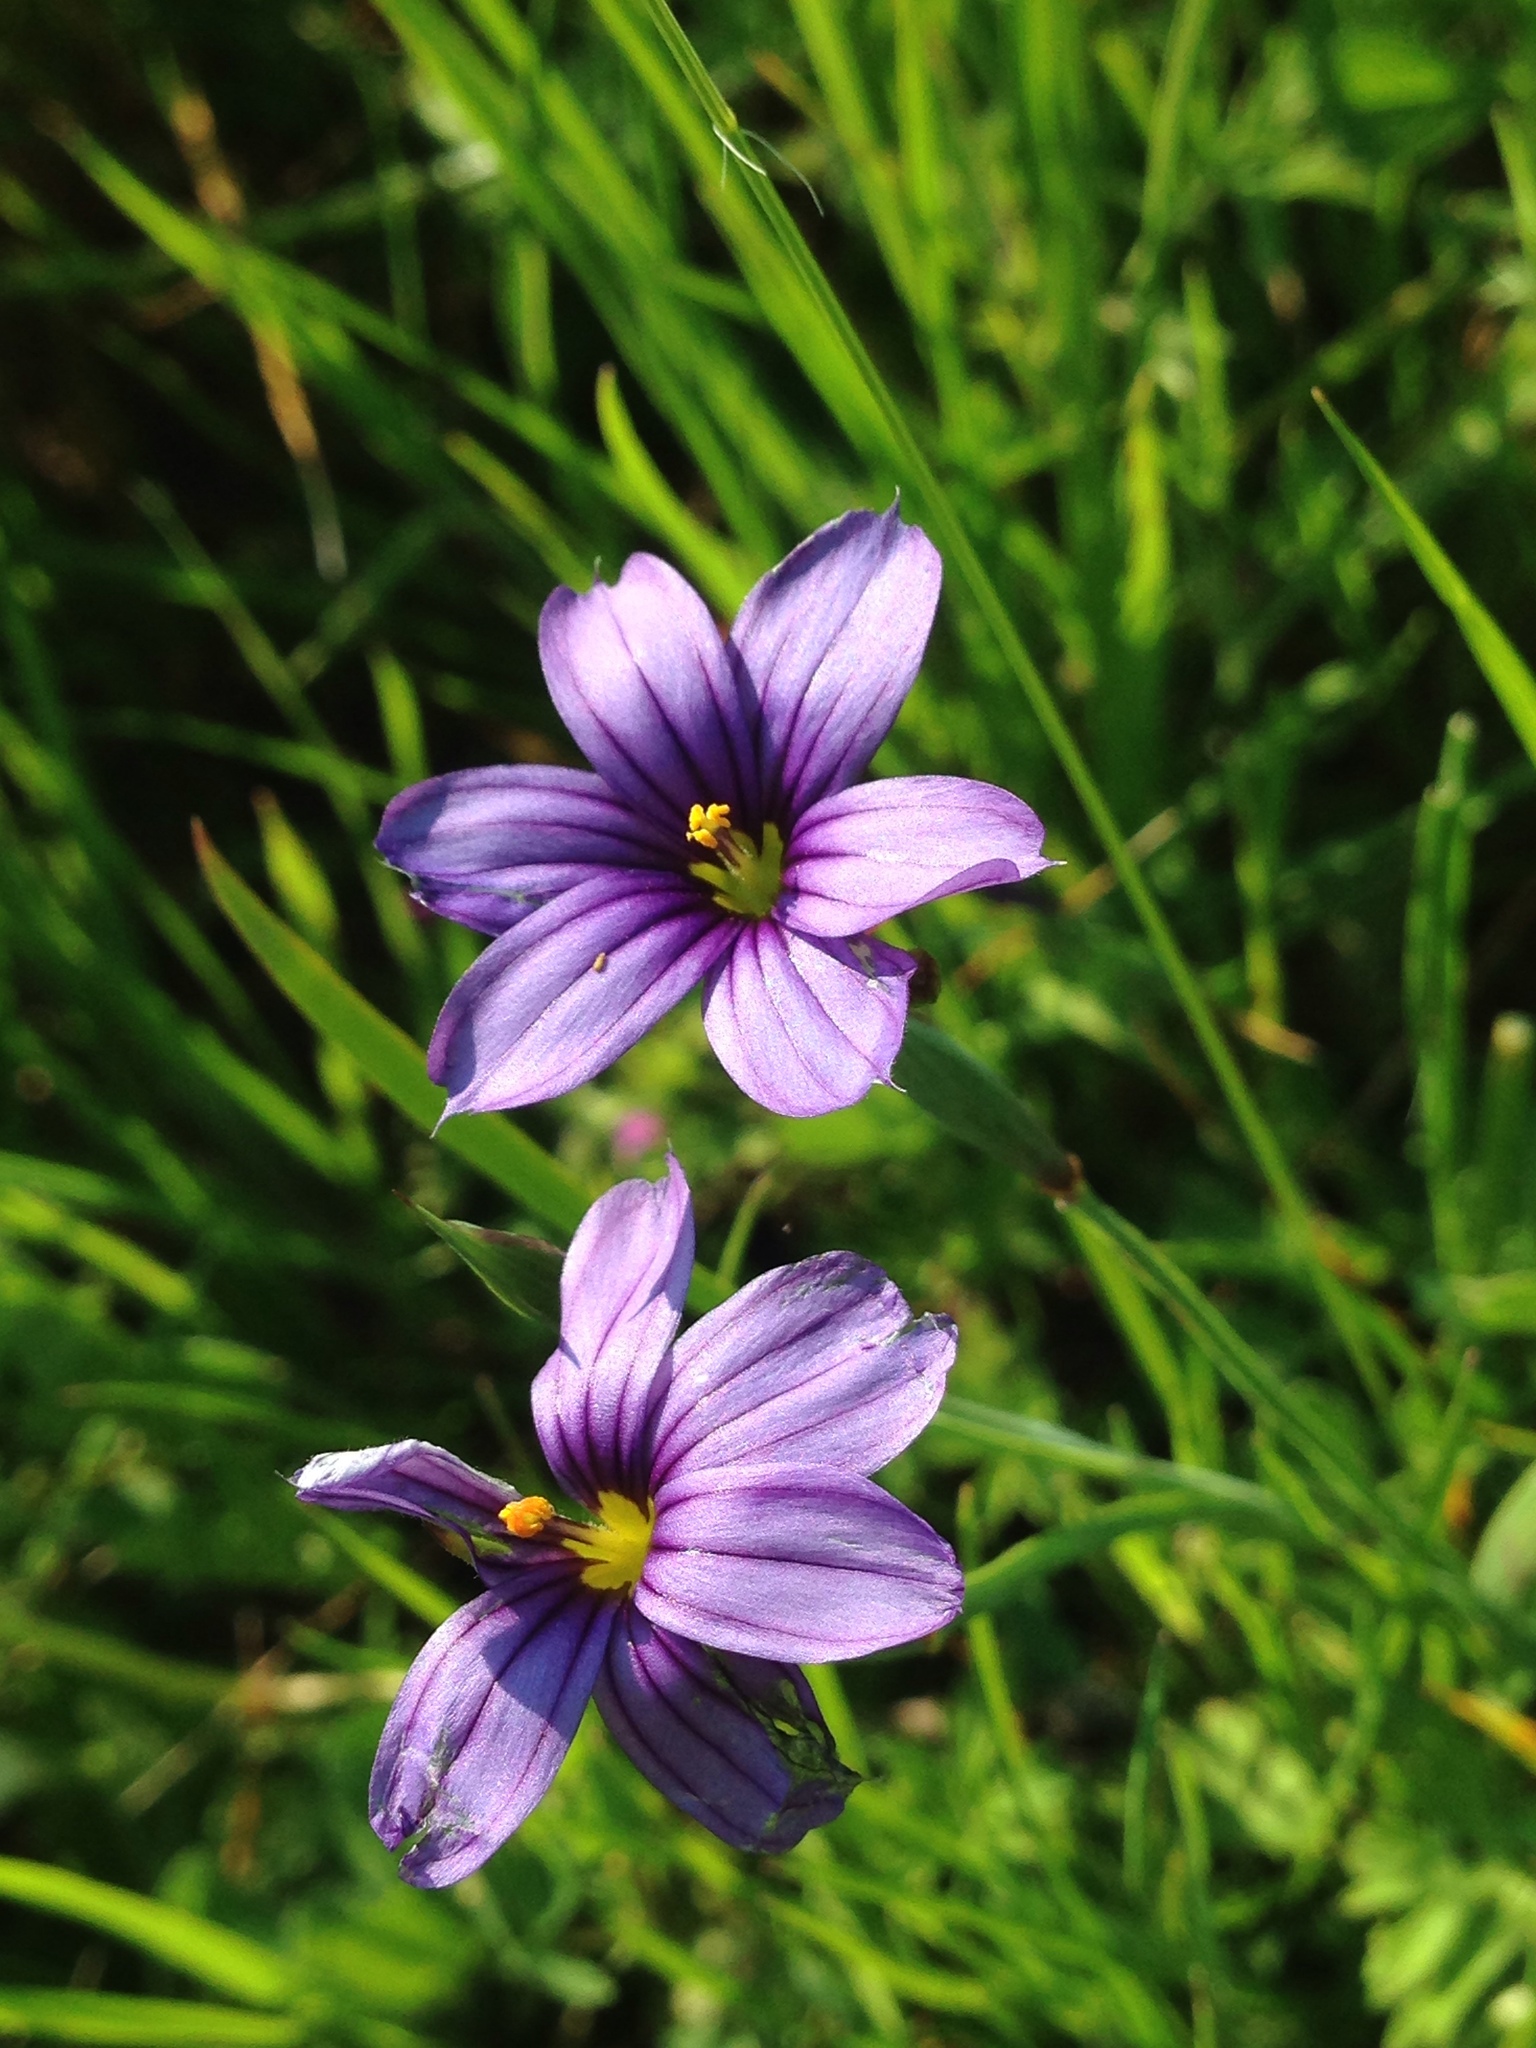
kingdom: Plantae
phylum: Tracheophyta
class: Liliopsida
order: Asparagales
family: Iridaceae
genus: Sisyrinchium
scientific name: Sisyrinchium bellum
